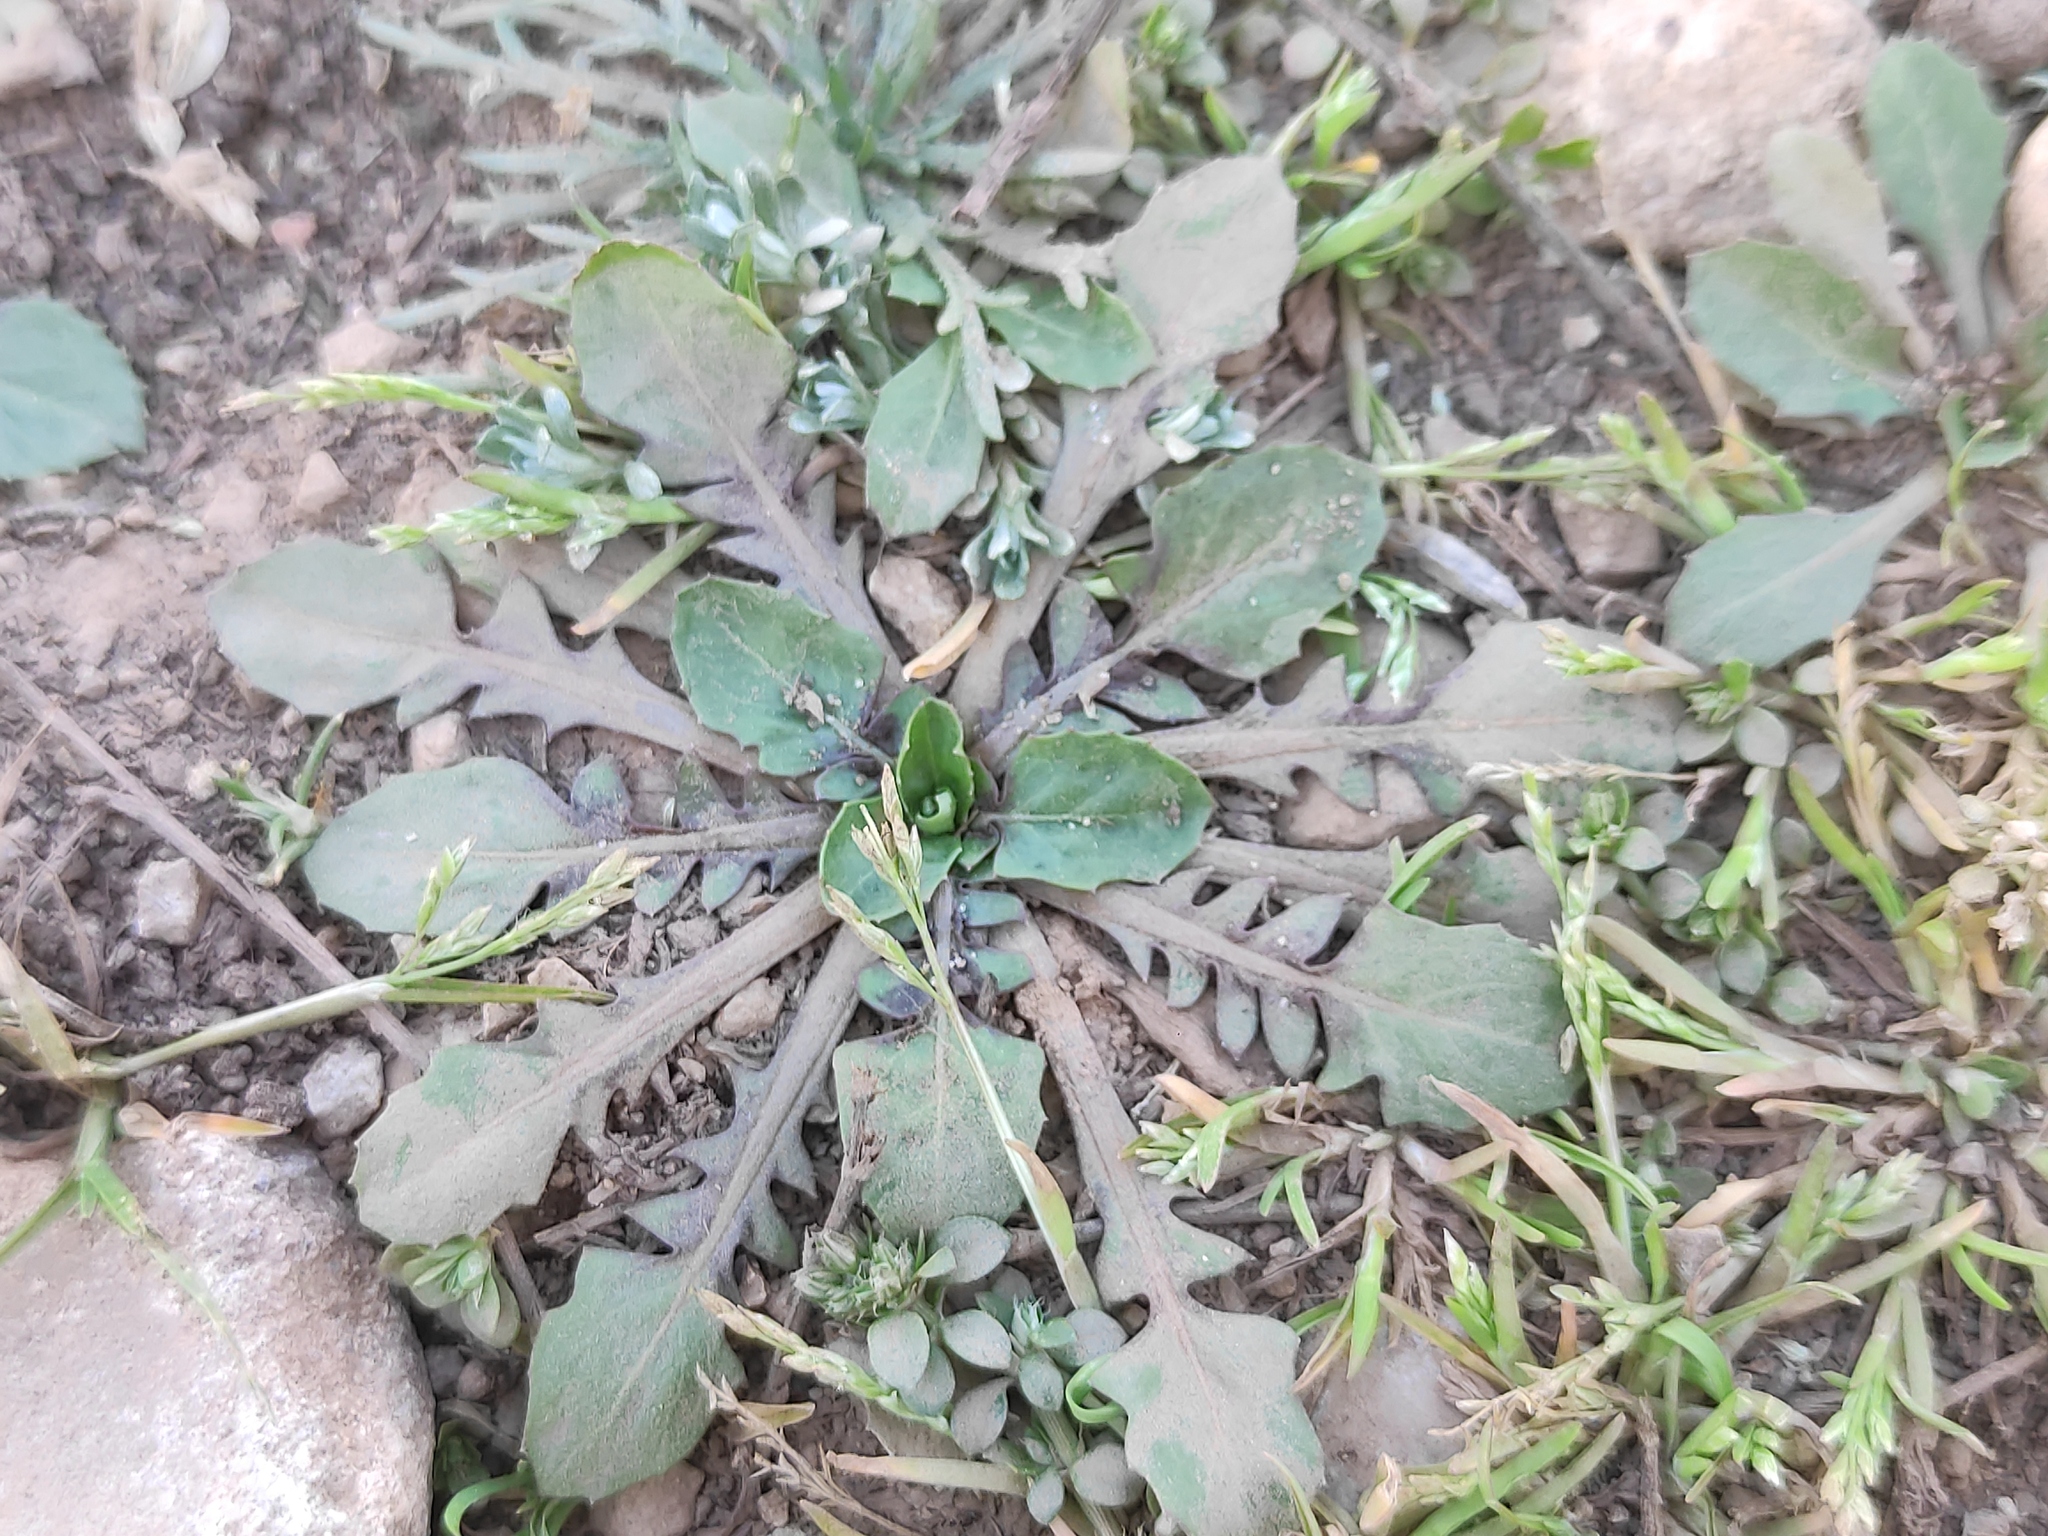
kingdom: Plantae
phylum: Tracheophyta
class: Magnoliopsida
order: Asterales
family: Asteraceae
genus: Crepis
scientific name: Crepis bursifolia
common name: Italian hawksbeard
